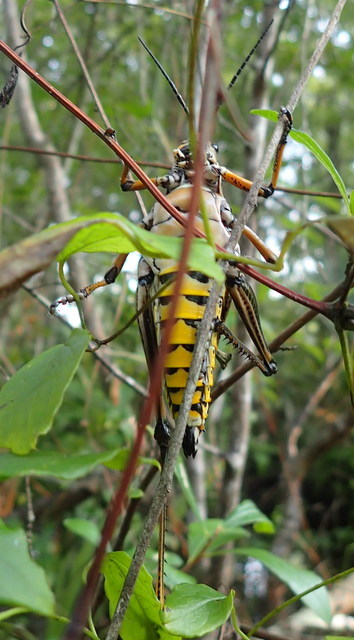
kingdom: Animalia
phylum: Arthropoda
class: Insecta
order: Orthoptera
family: Romaleidae
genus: Romalea
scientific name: Romalea microptera
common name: Eastern lubber grasshopper
